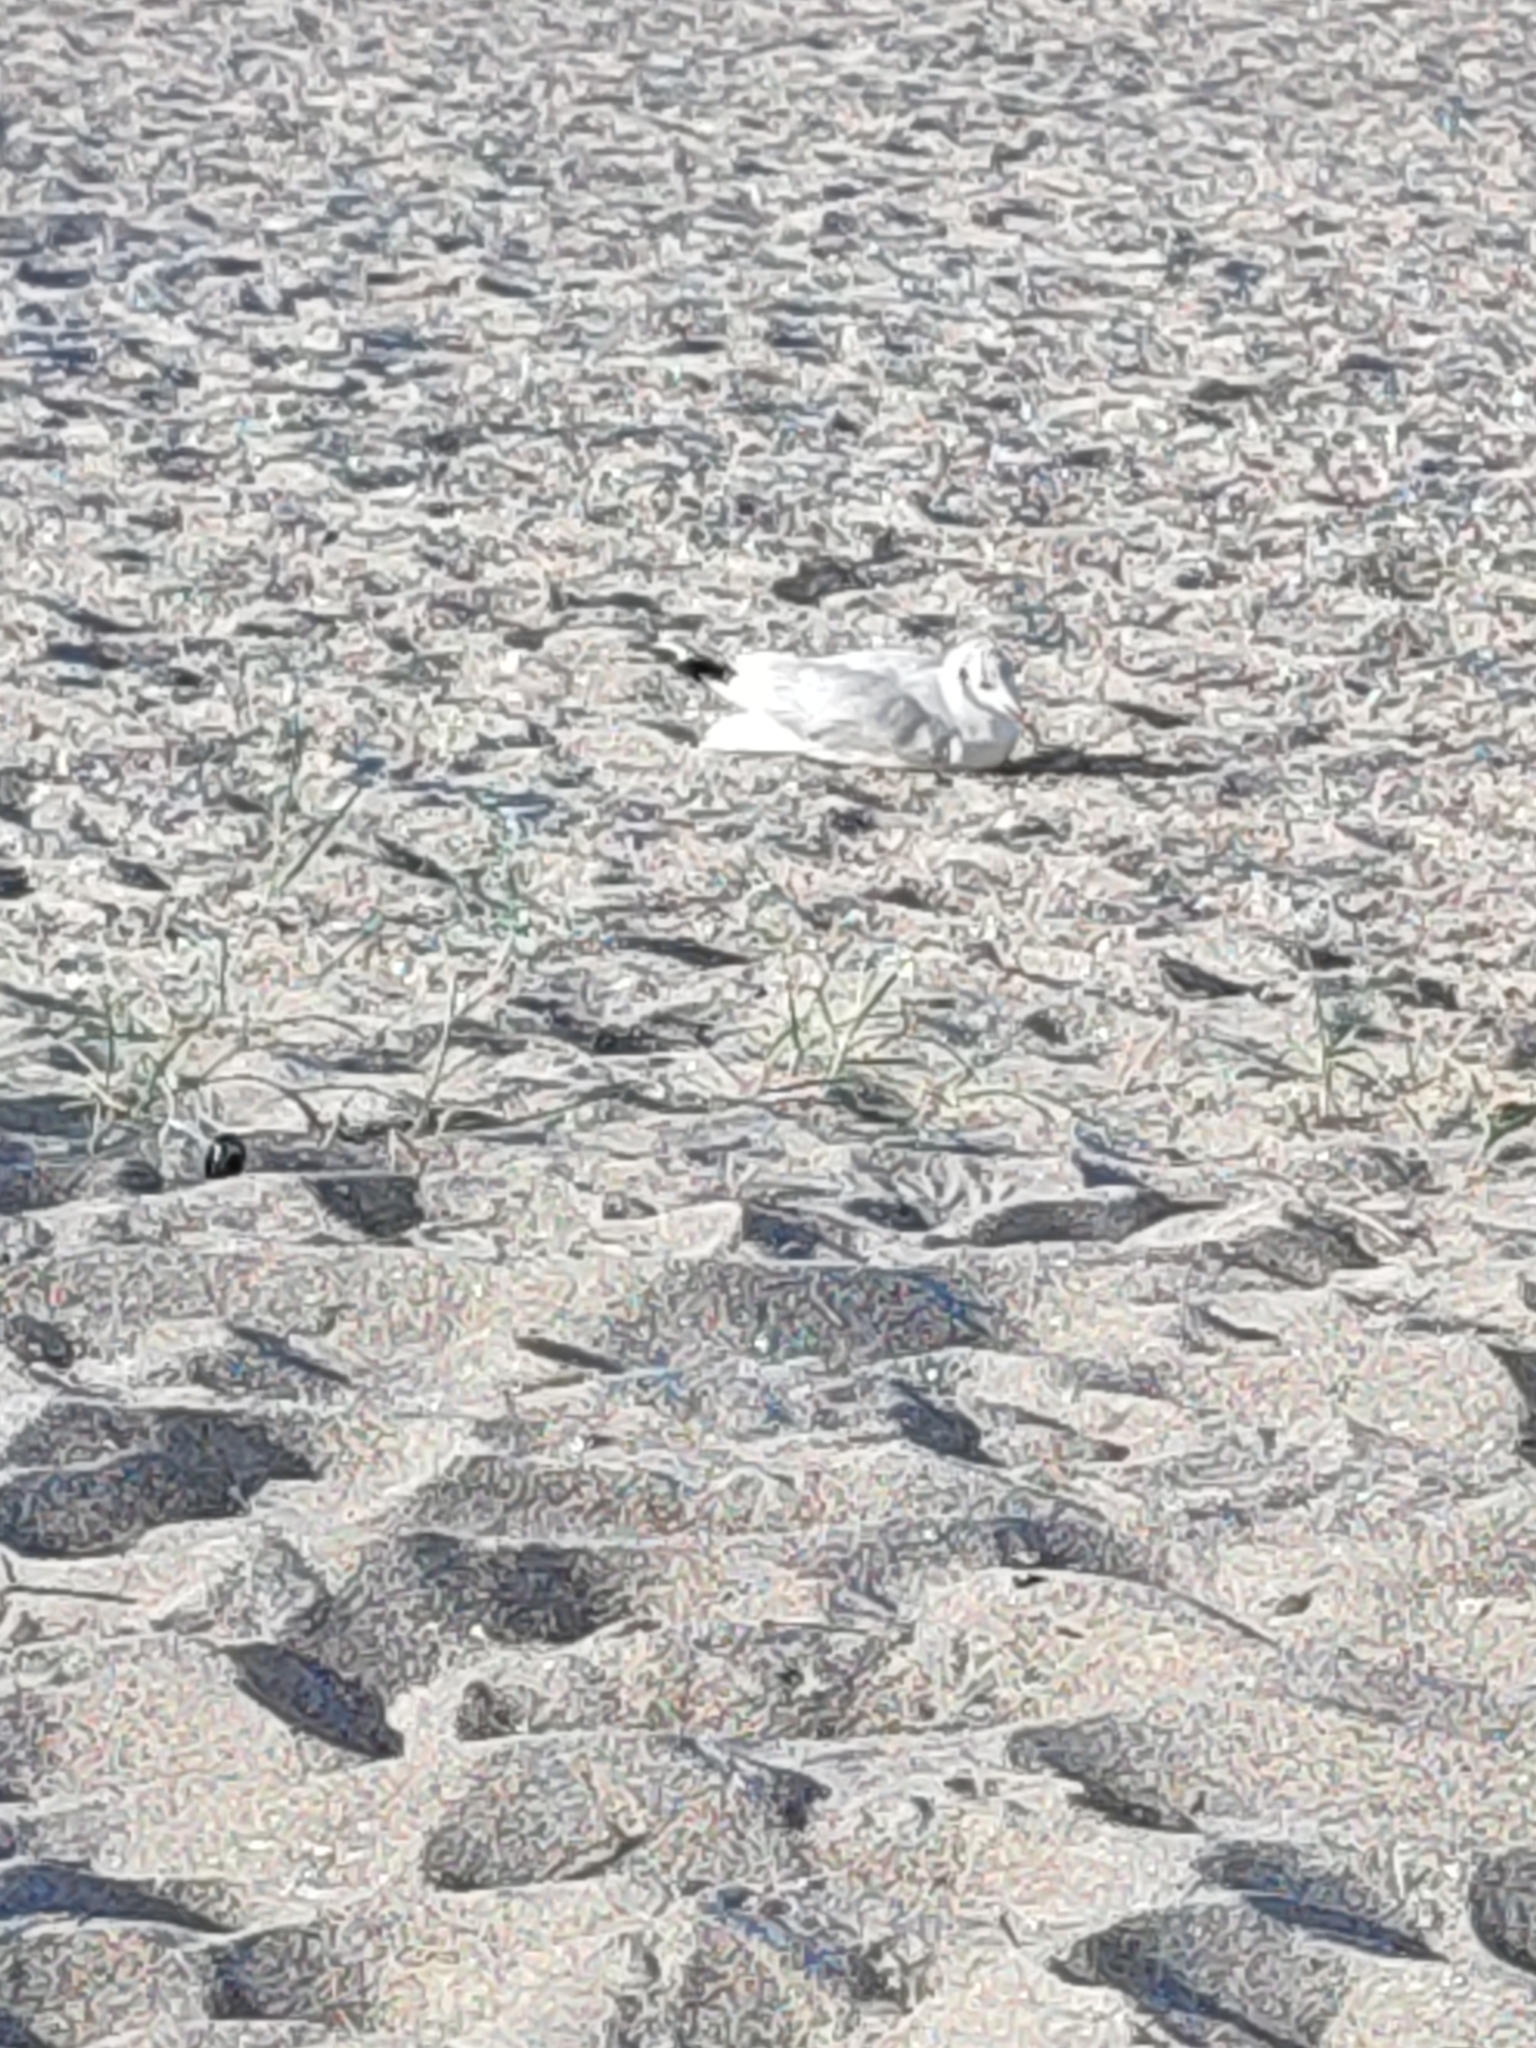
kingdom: Animalia
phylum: Chordata
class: Aves
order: Charadriiformes
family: Laridae
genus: Chroicocephalus
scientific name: Chroicocephalus ridibundus
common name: Black-headed gull
